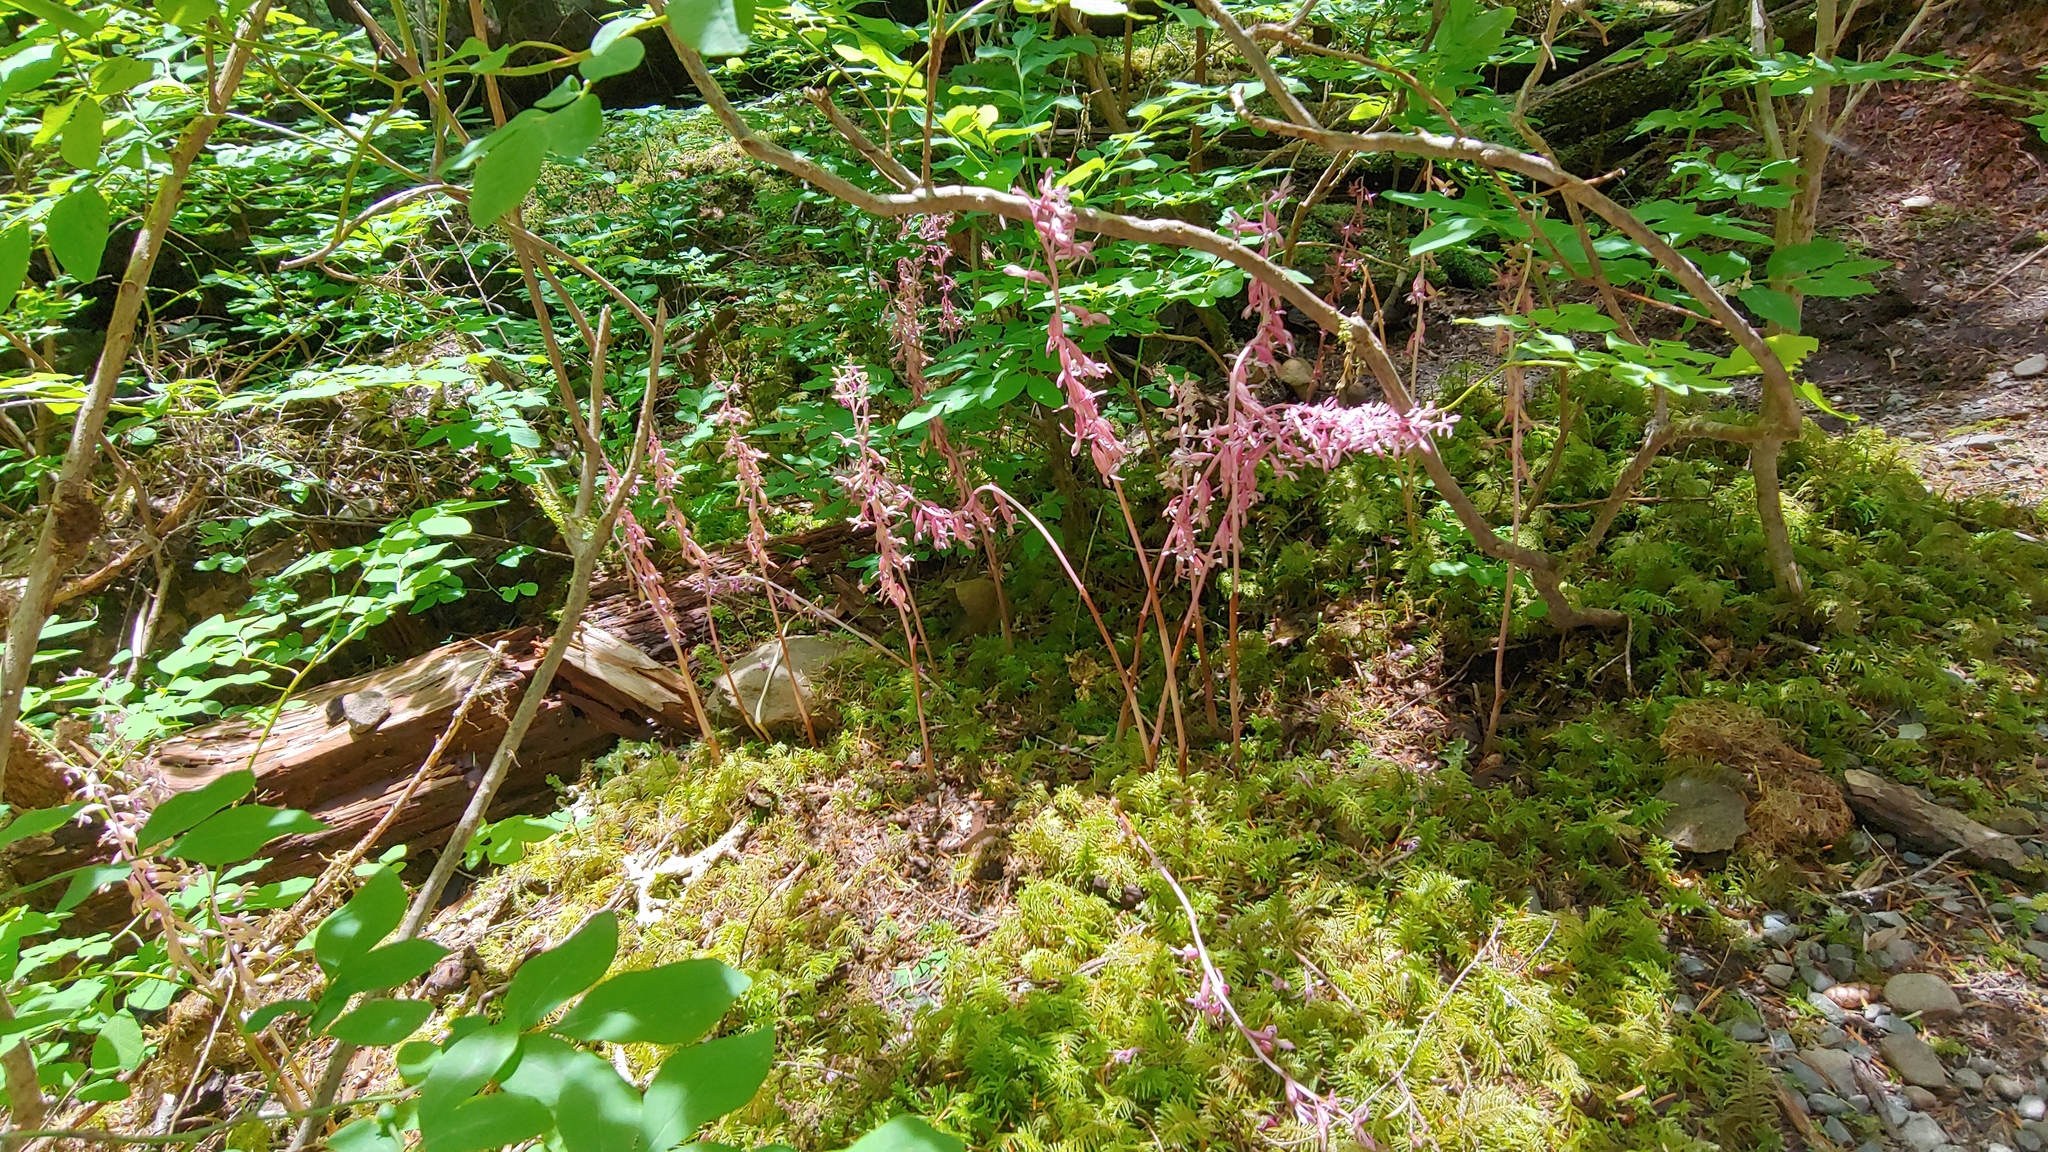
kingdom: Plantae
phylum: Tracheophyta
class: Liliopsida
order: Asparagales
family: Orchidaceae
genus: Corallorhiza
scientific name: Corallorhiza mertensiana
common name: Pacific coralroot
